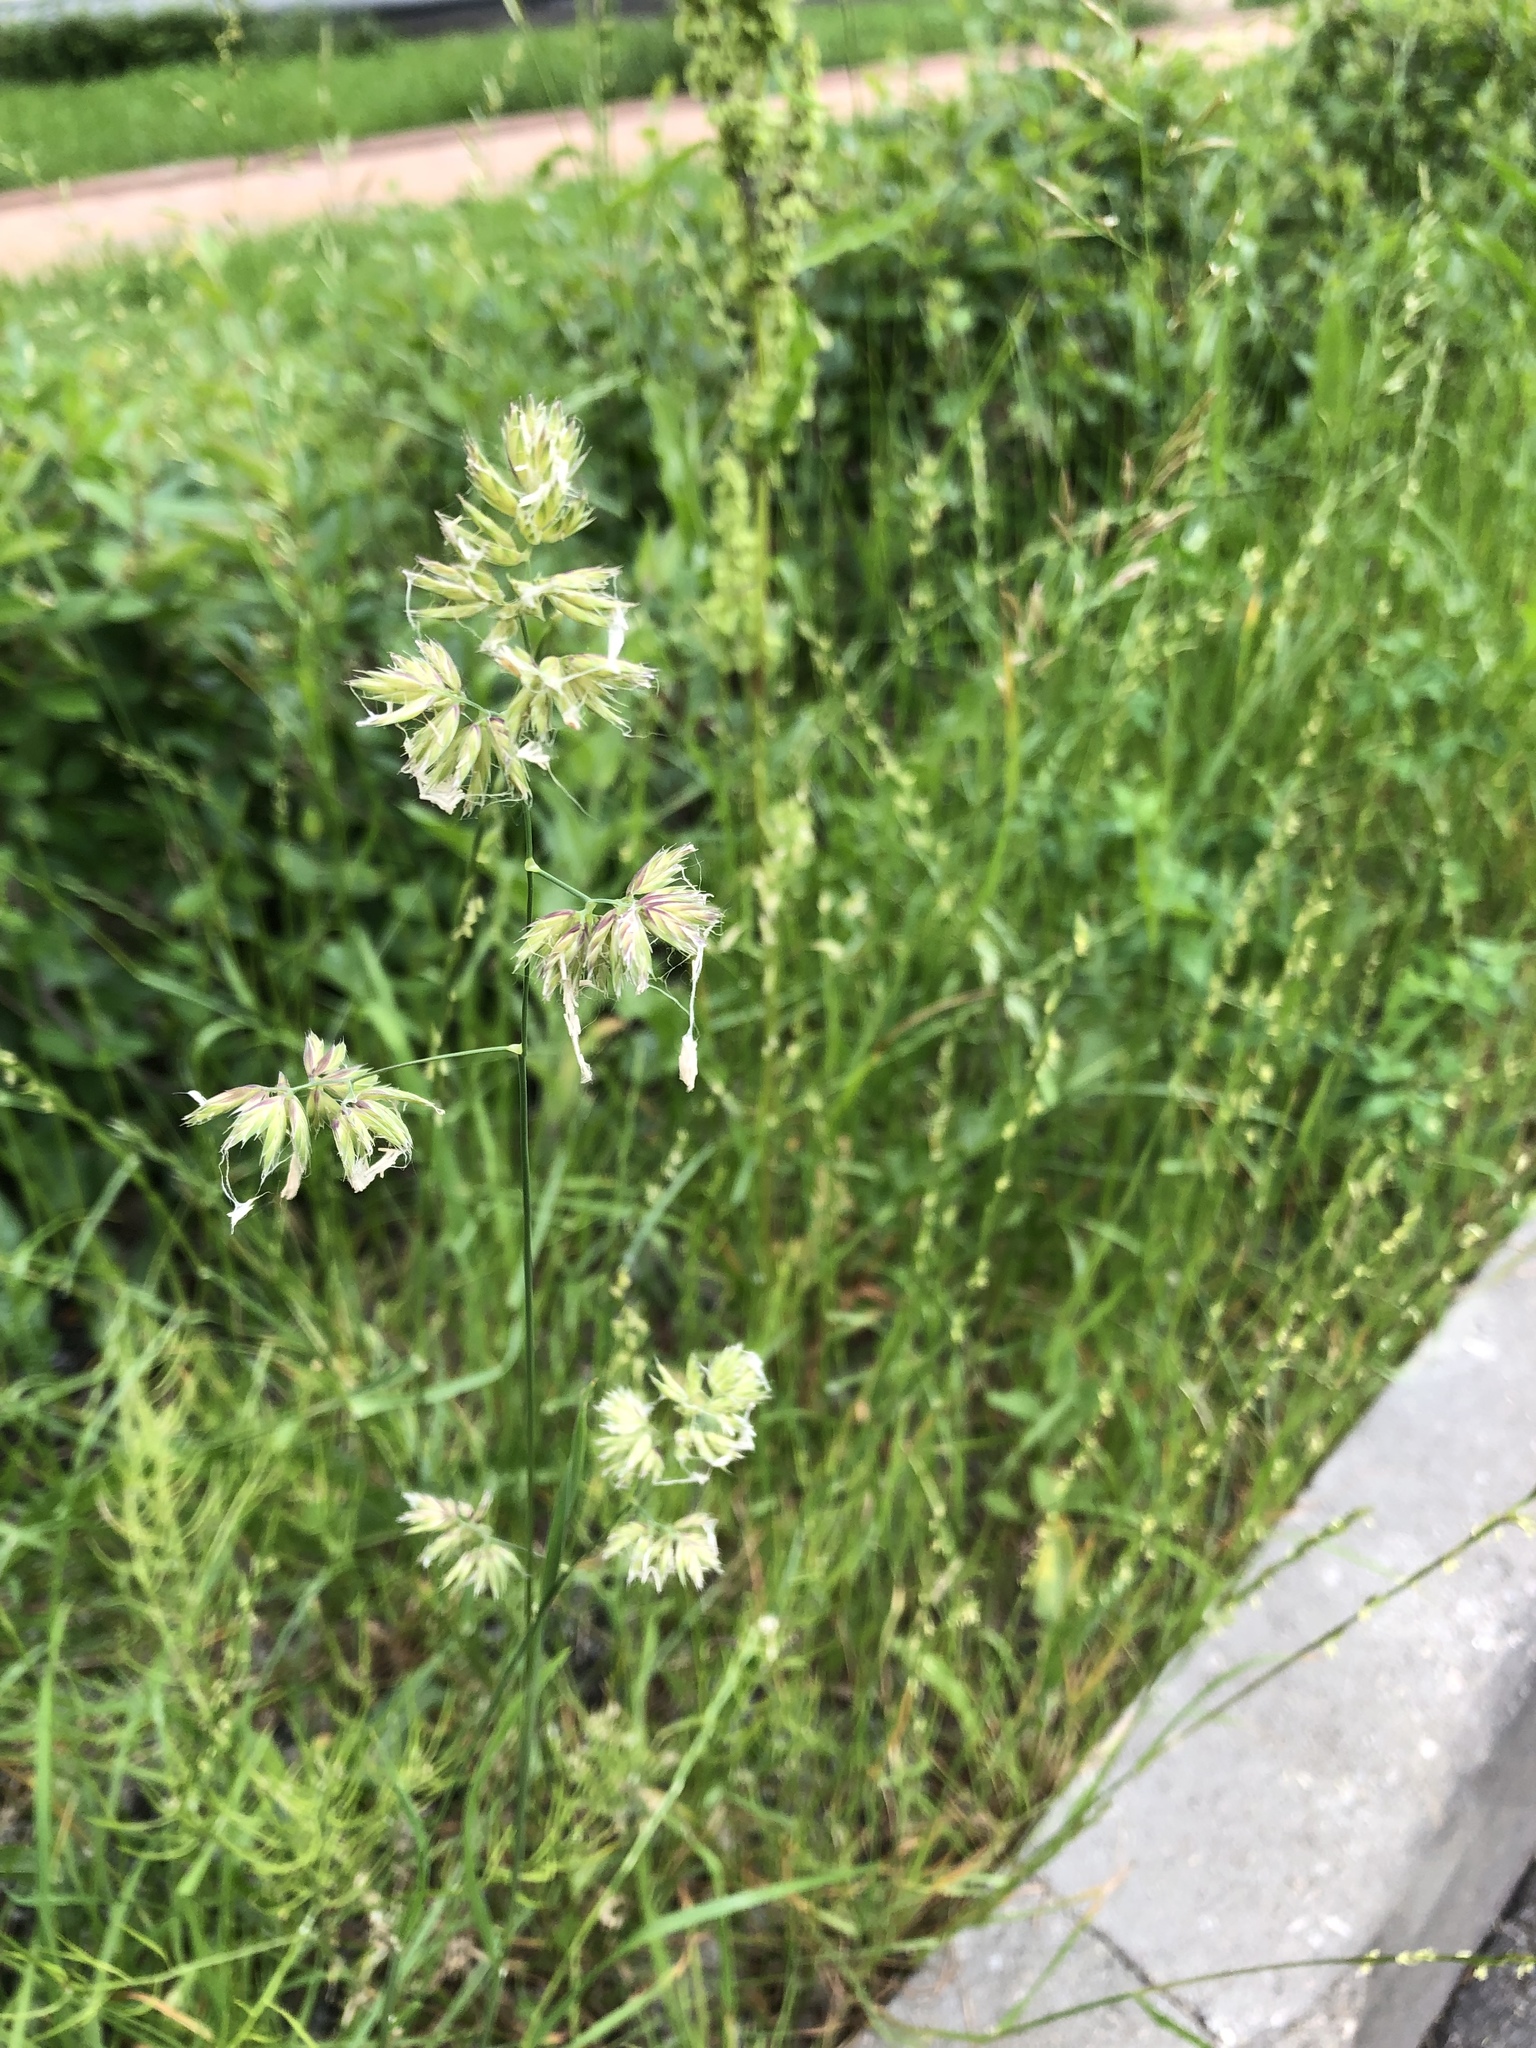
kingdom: Plantae
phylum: Tracheophyta
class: Liliopsida
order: Poales
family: Poaceae
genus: Dactylis
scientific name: Dactylis glomerata
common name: Orchardgrass
